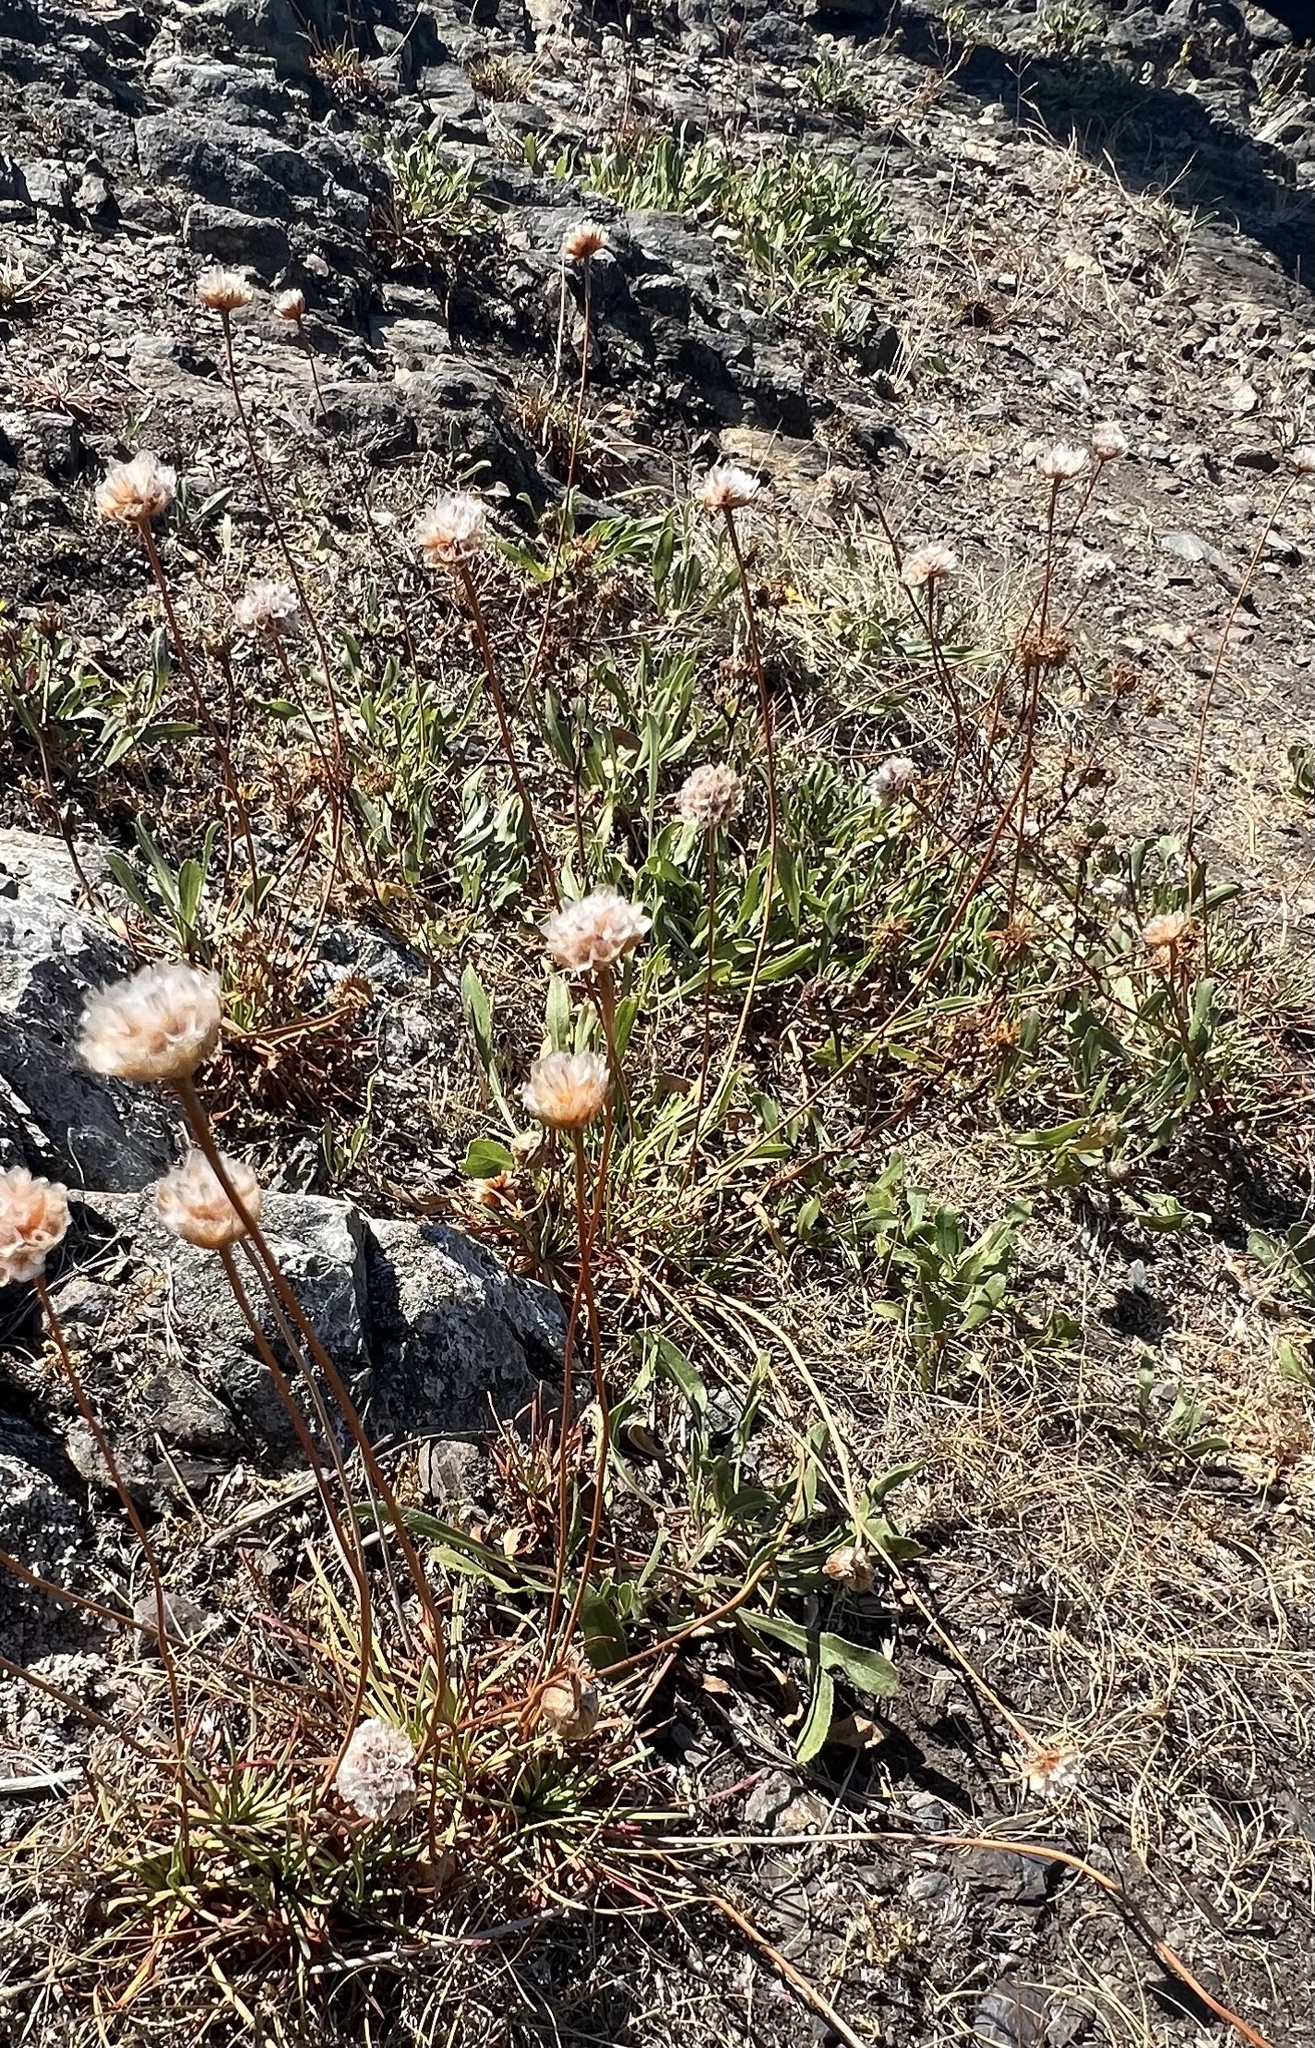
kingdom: Plantae
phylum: Tracheophyta
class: Magnoliopsida
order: Caryophyllales
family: Plumbaginaceae
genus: Armeria
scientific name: Armeria maritima
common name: Thrift
